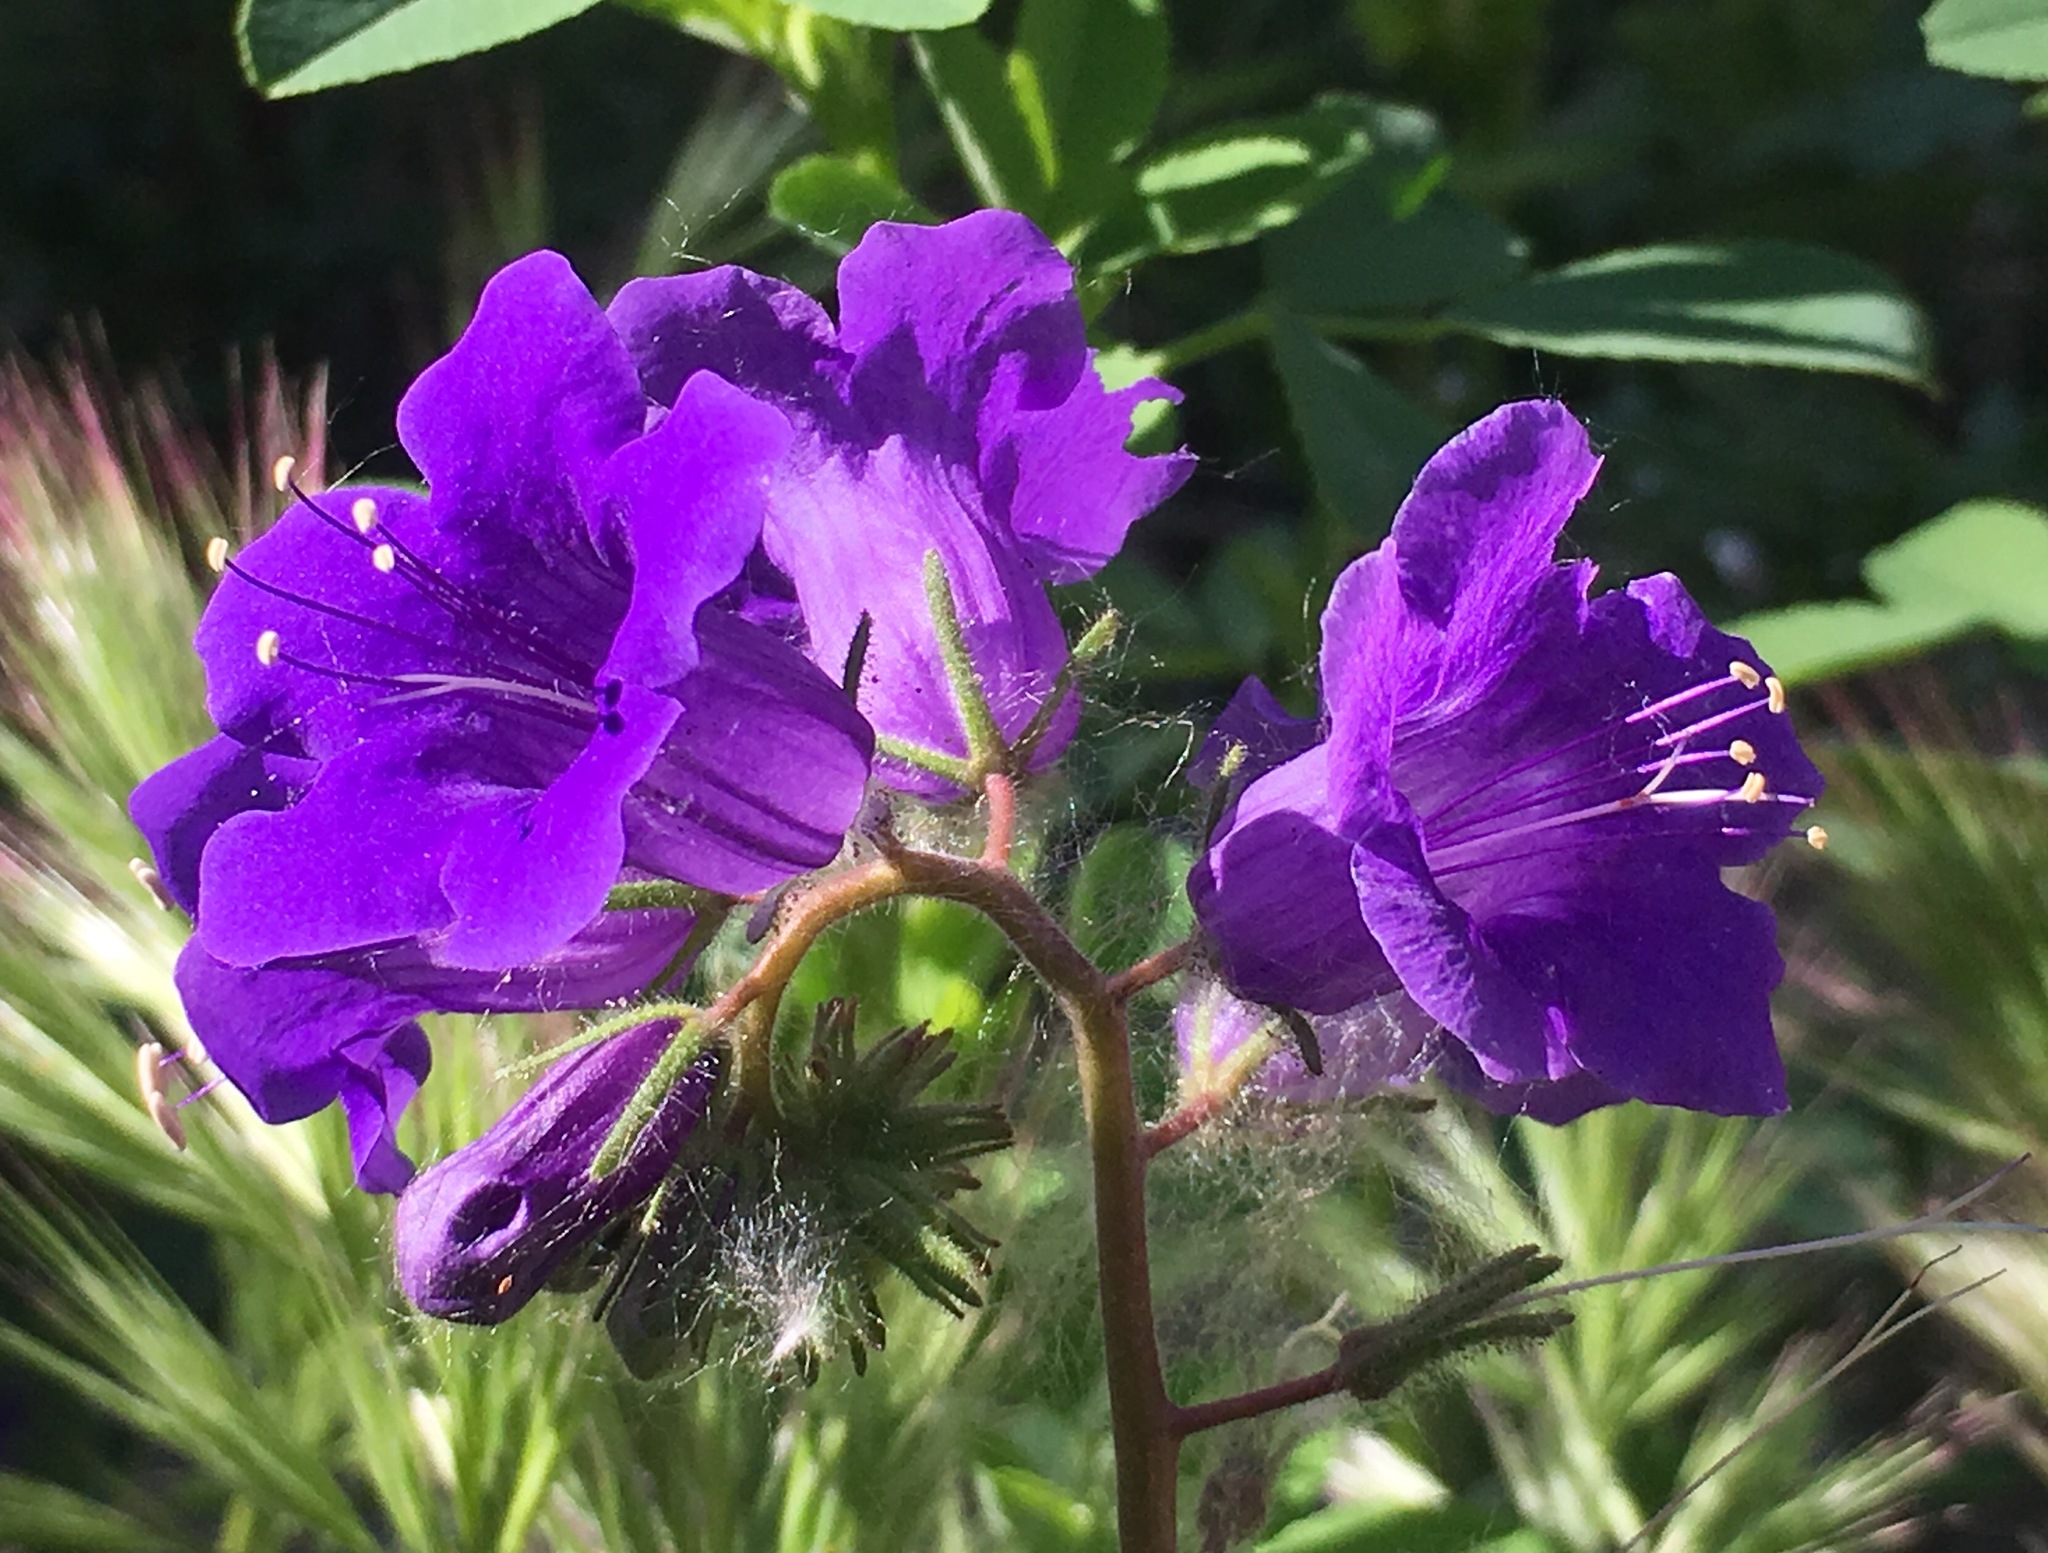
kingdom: Plantae
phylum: Tracheophyta
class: Magnoliopsida
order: Boraginales
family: Hydrophyllaceae
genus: Phacelia
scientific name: Phacelia minor
